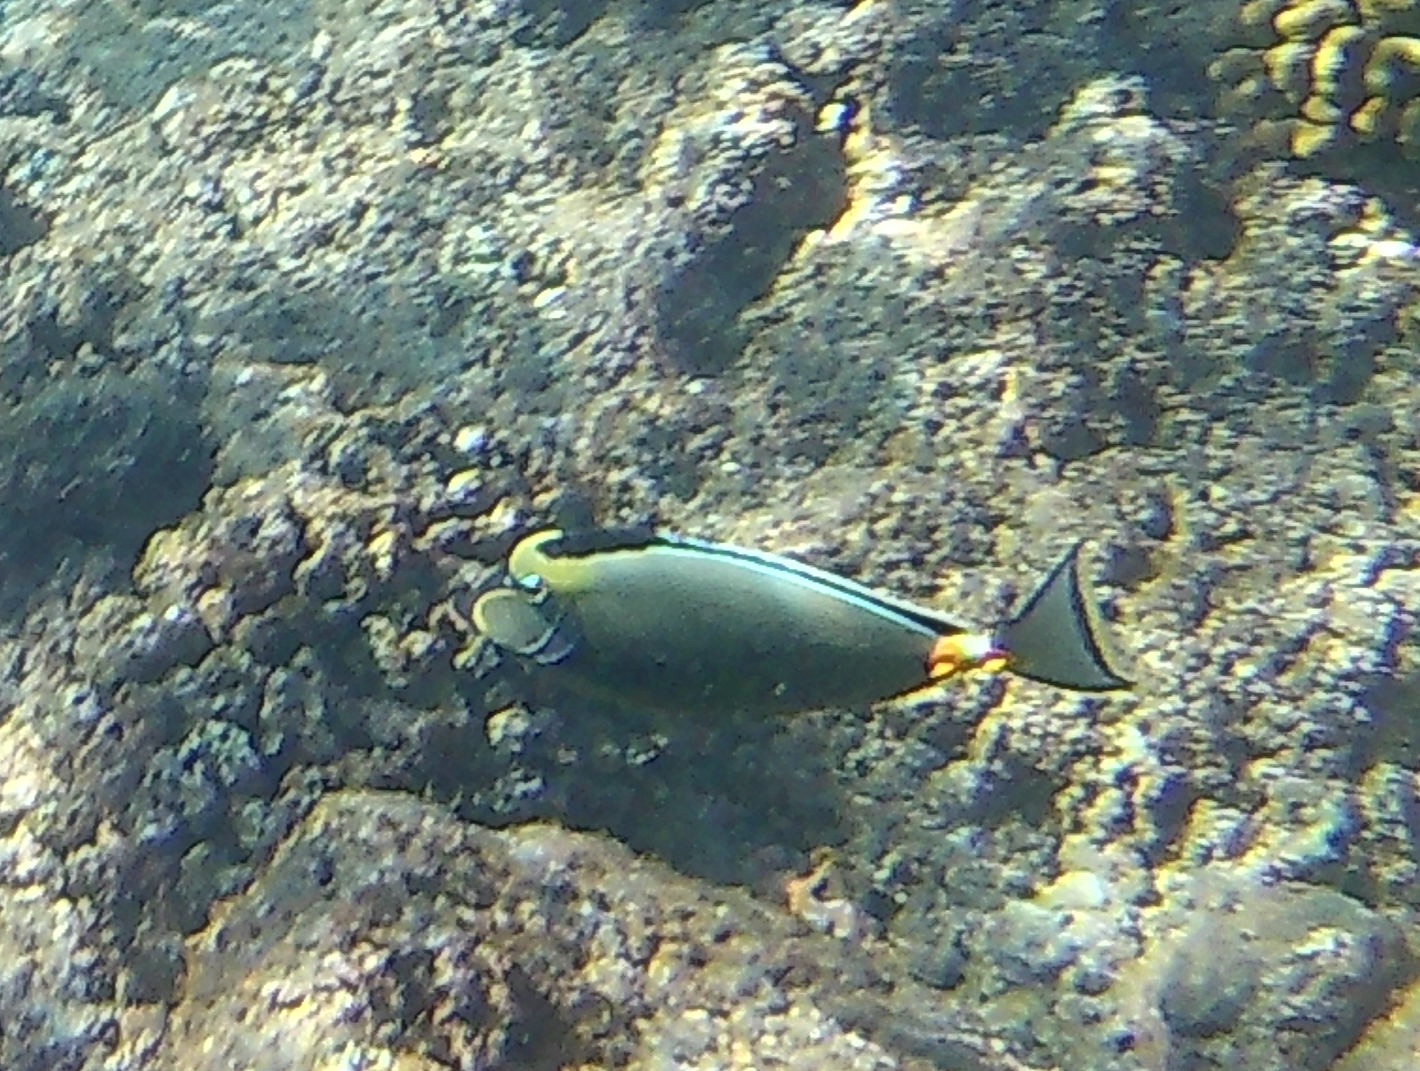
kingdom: Animalia
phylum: Chordata
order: Perciformes
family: Acanthuridae
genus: Naso
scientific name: Naso lituratus
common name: Orangespine unicornfish
